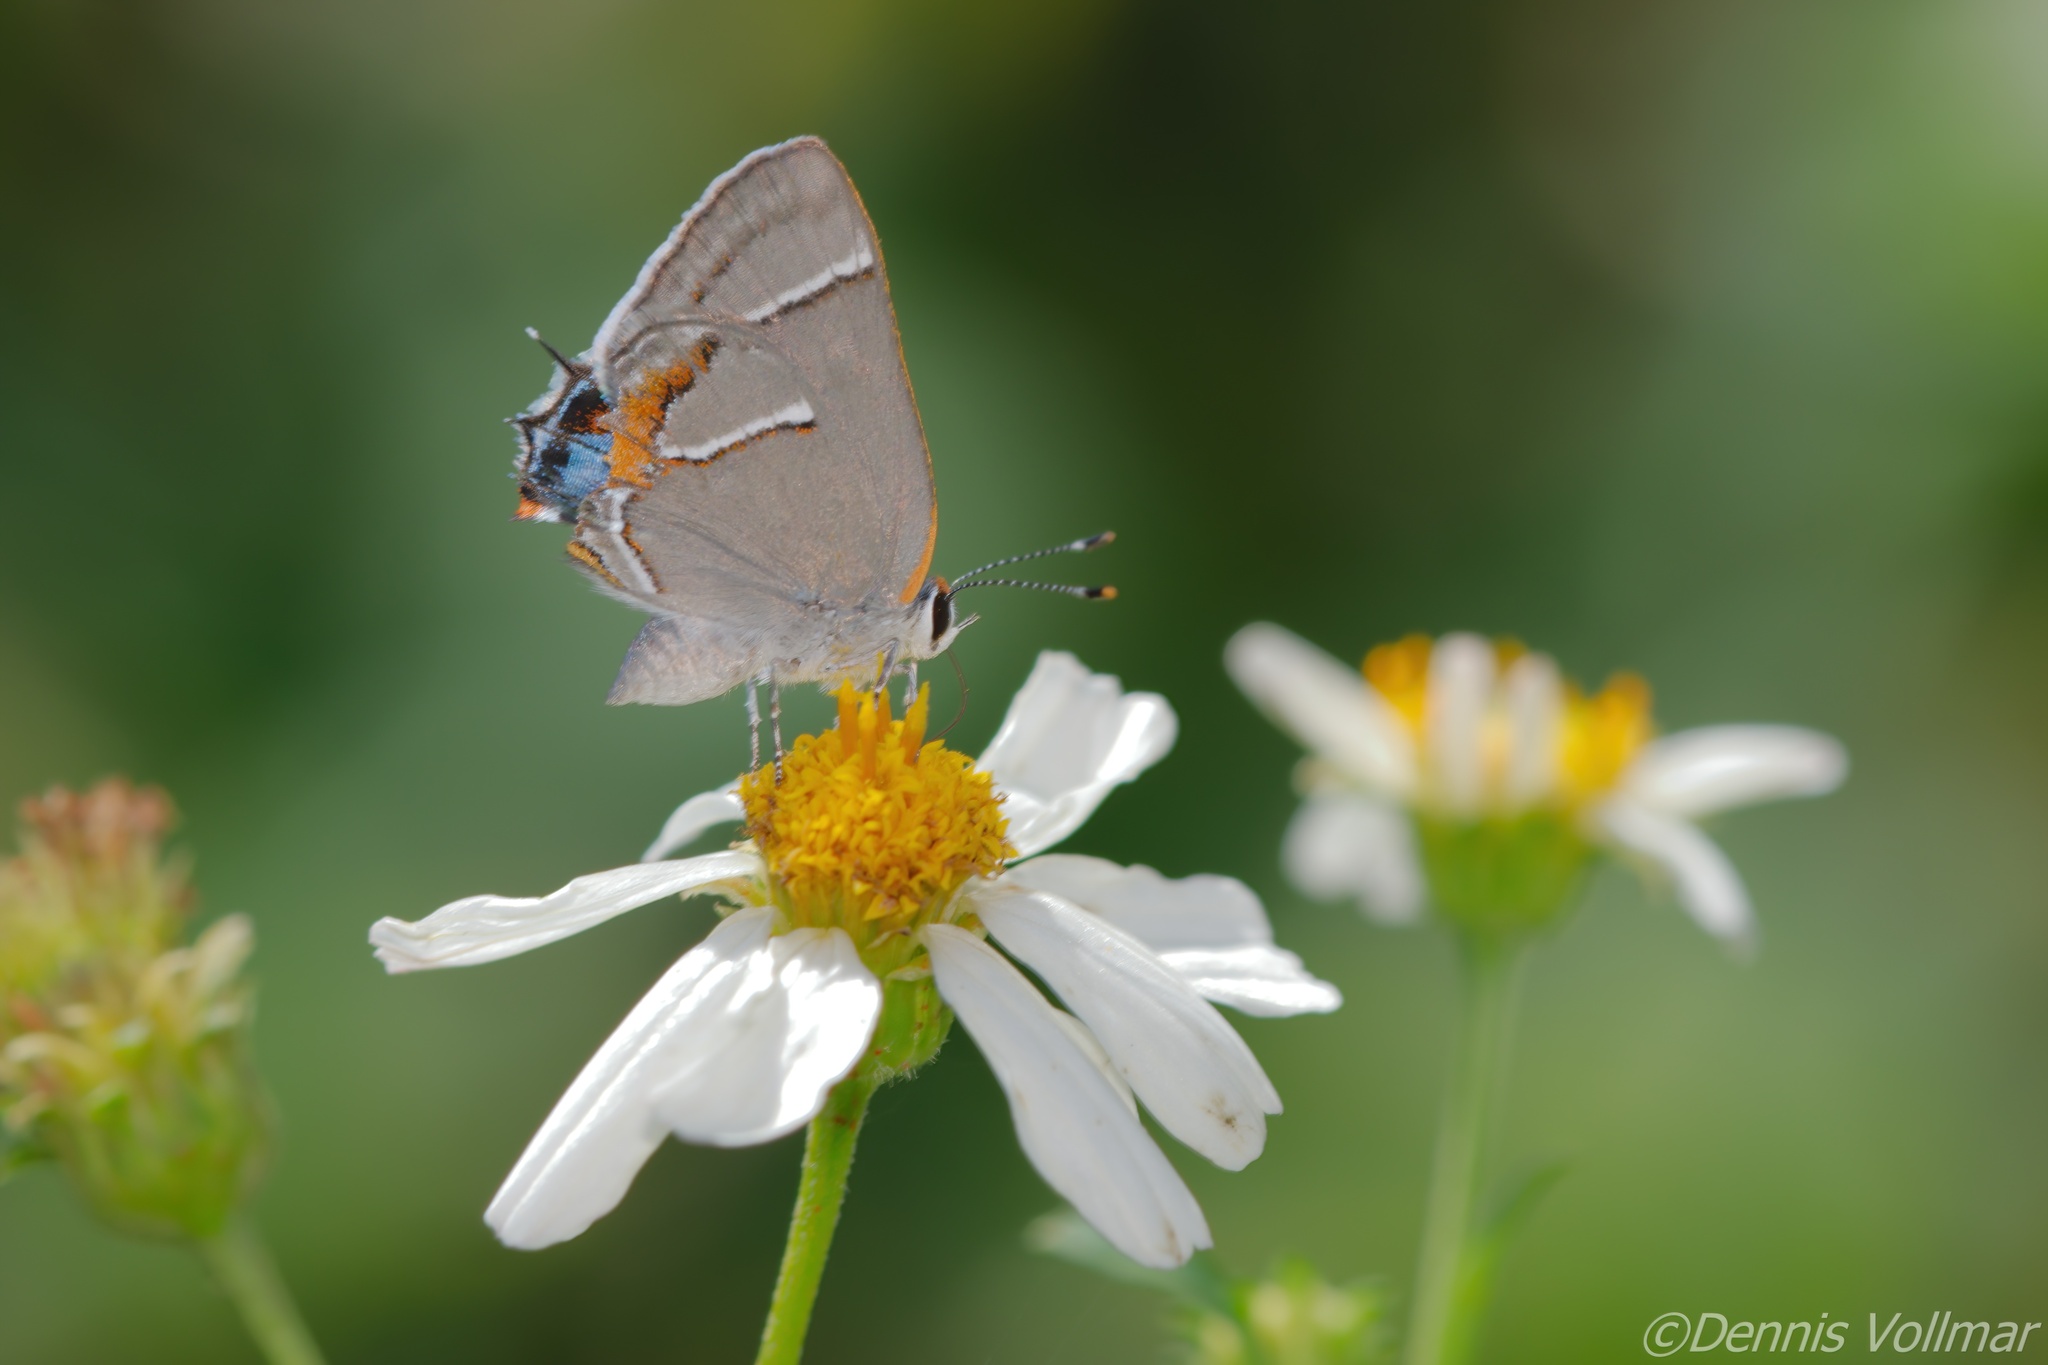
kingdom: Animalia
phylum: Arthropoda
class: Insecta
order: Lepidoptera
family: Lycaenidae
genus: Thecla
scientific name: Thecla martialis
